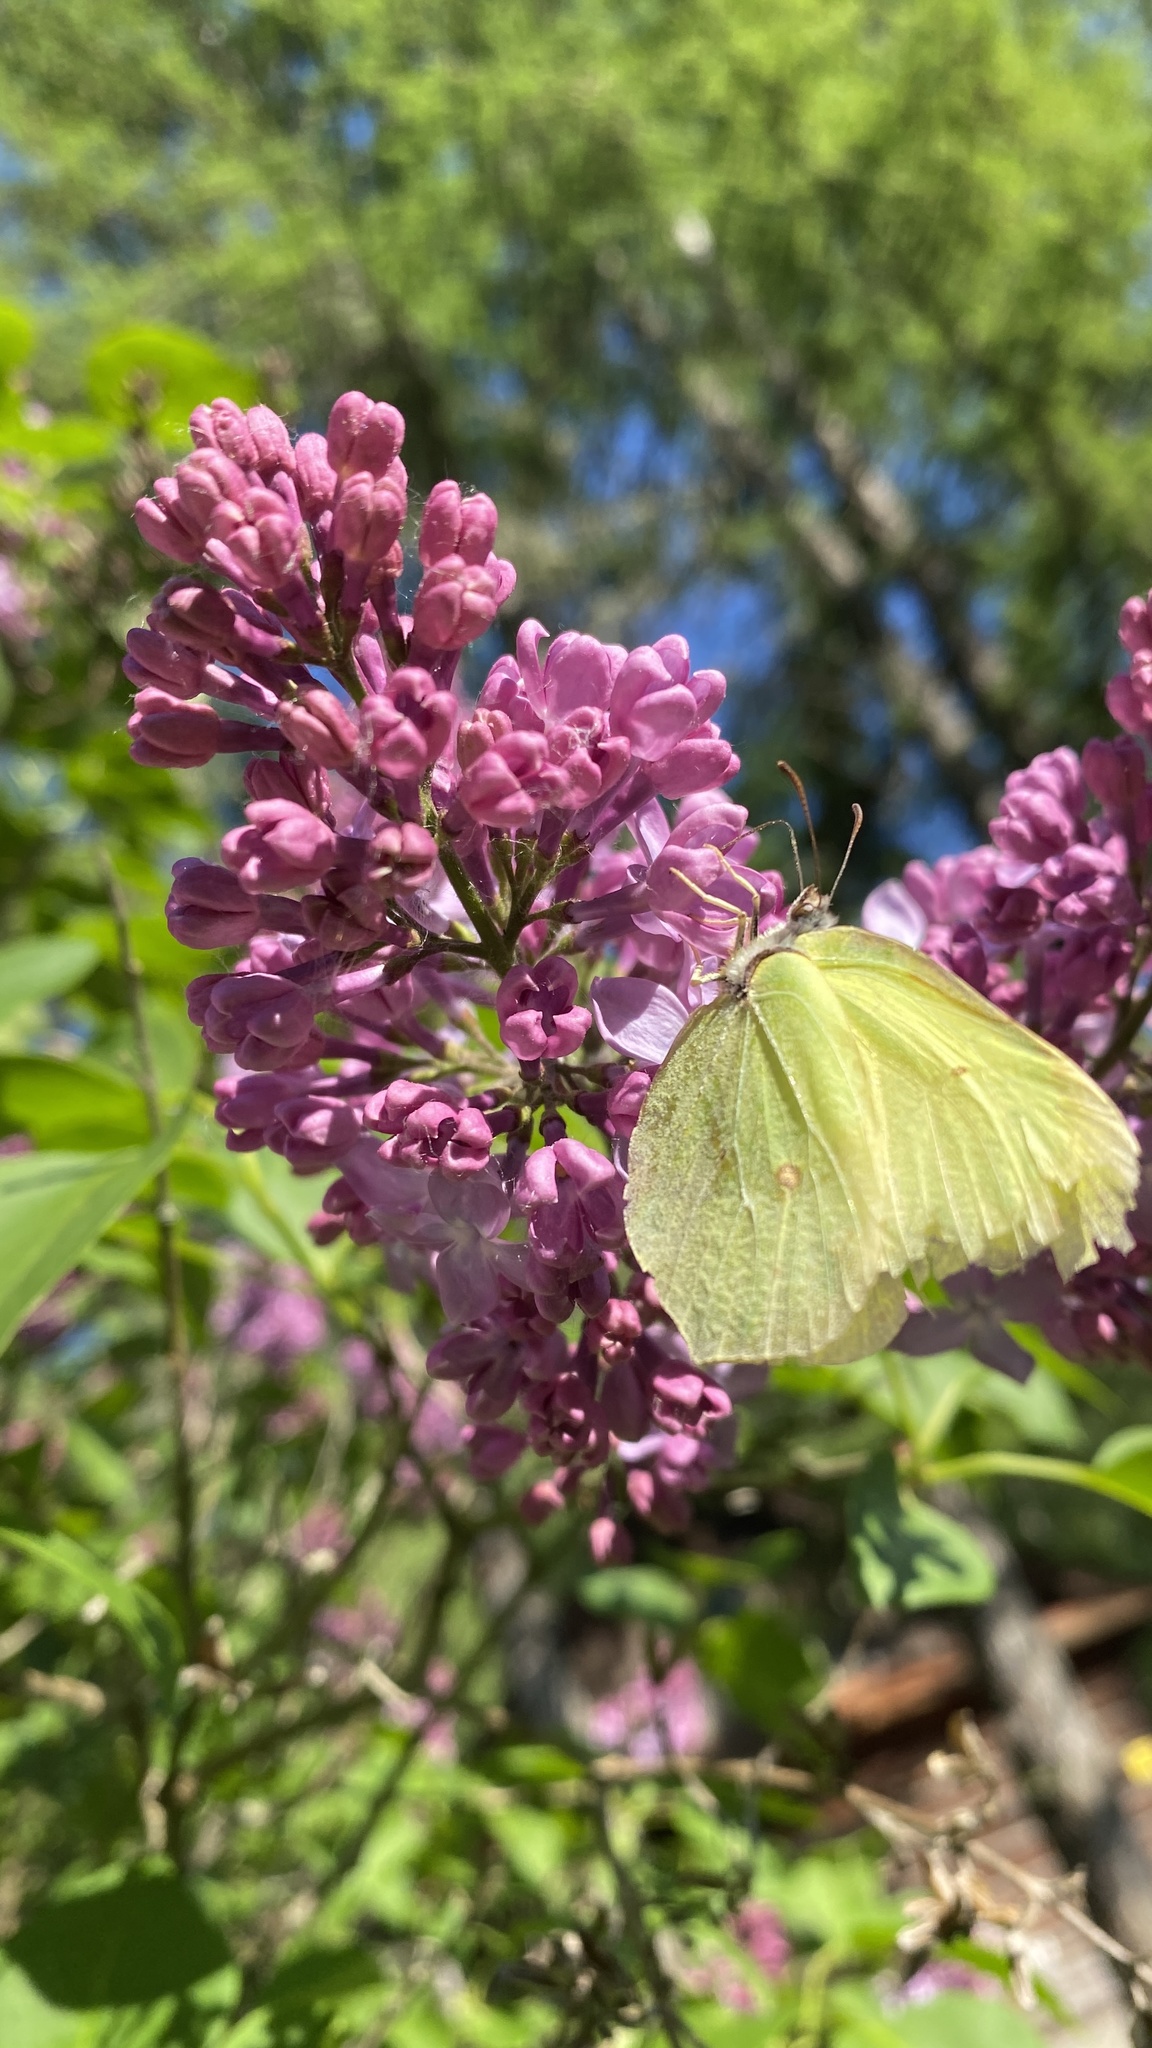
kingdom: Animalia
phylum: Arthropoda
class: Insecta
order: Lepidoptera
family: Pieridae
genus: Gonepteryx
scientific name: Gonepteryx rhamni
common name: Brimstone
